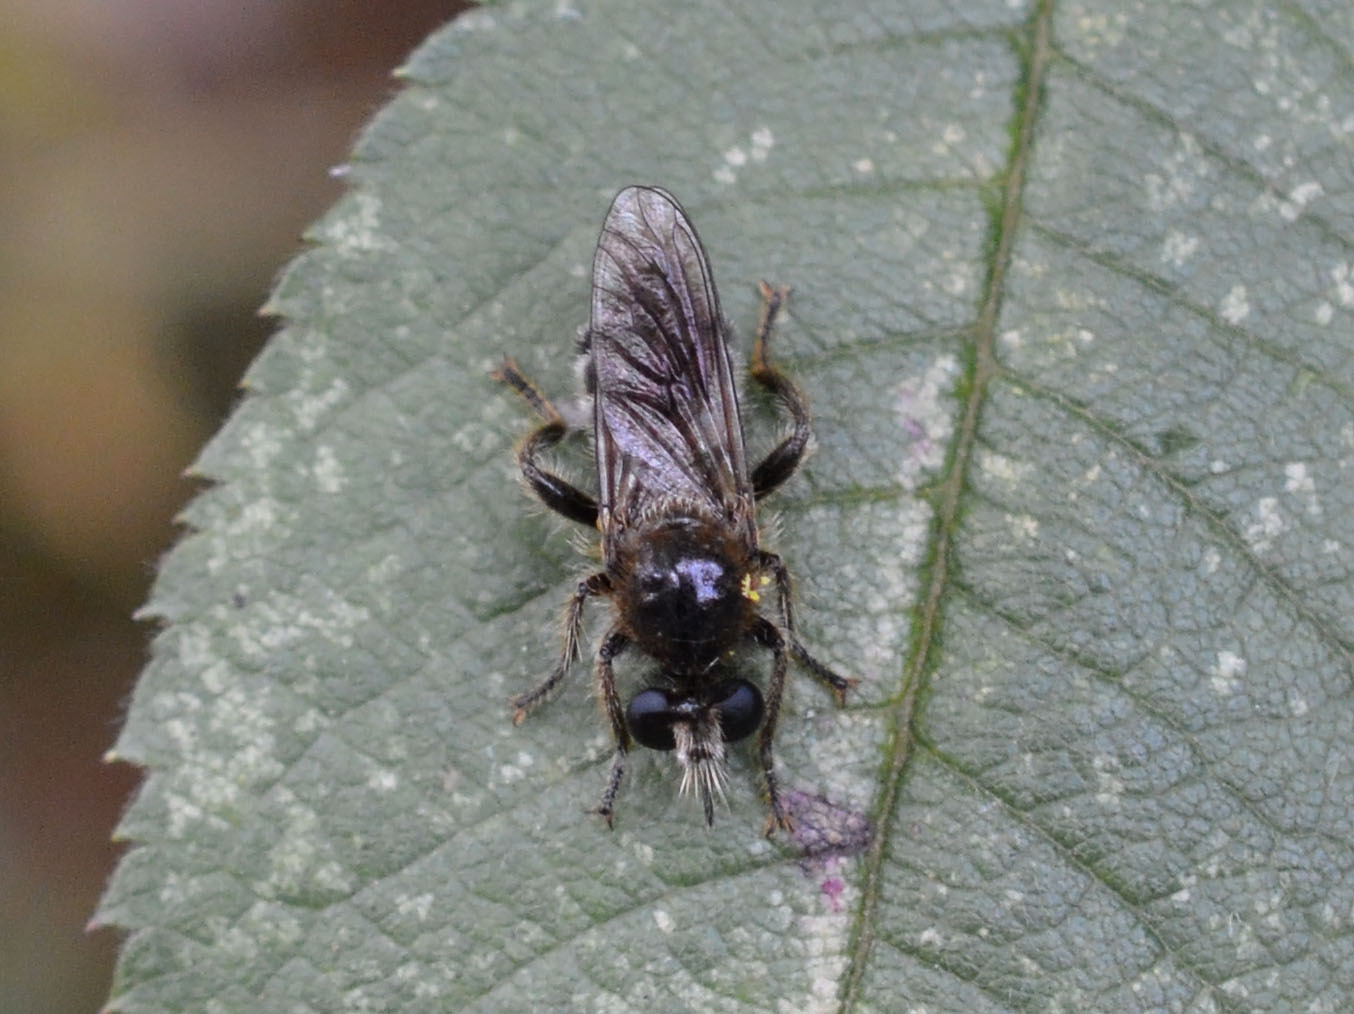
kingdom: Animalia
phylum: Arthropoda
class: Insecta
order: Diptera
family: Asilidae
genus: Lamyra
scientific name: Lamyra fuliginosa
